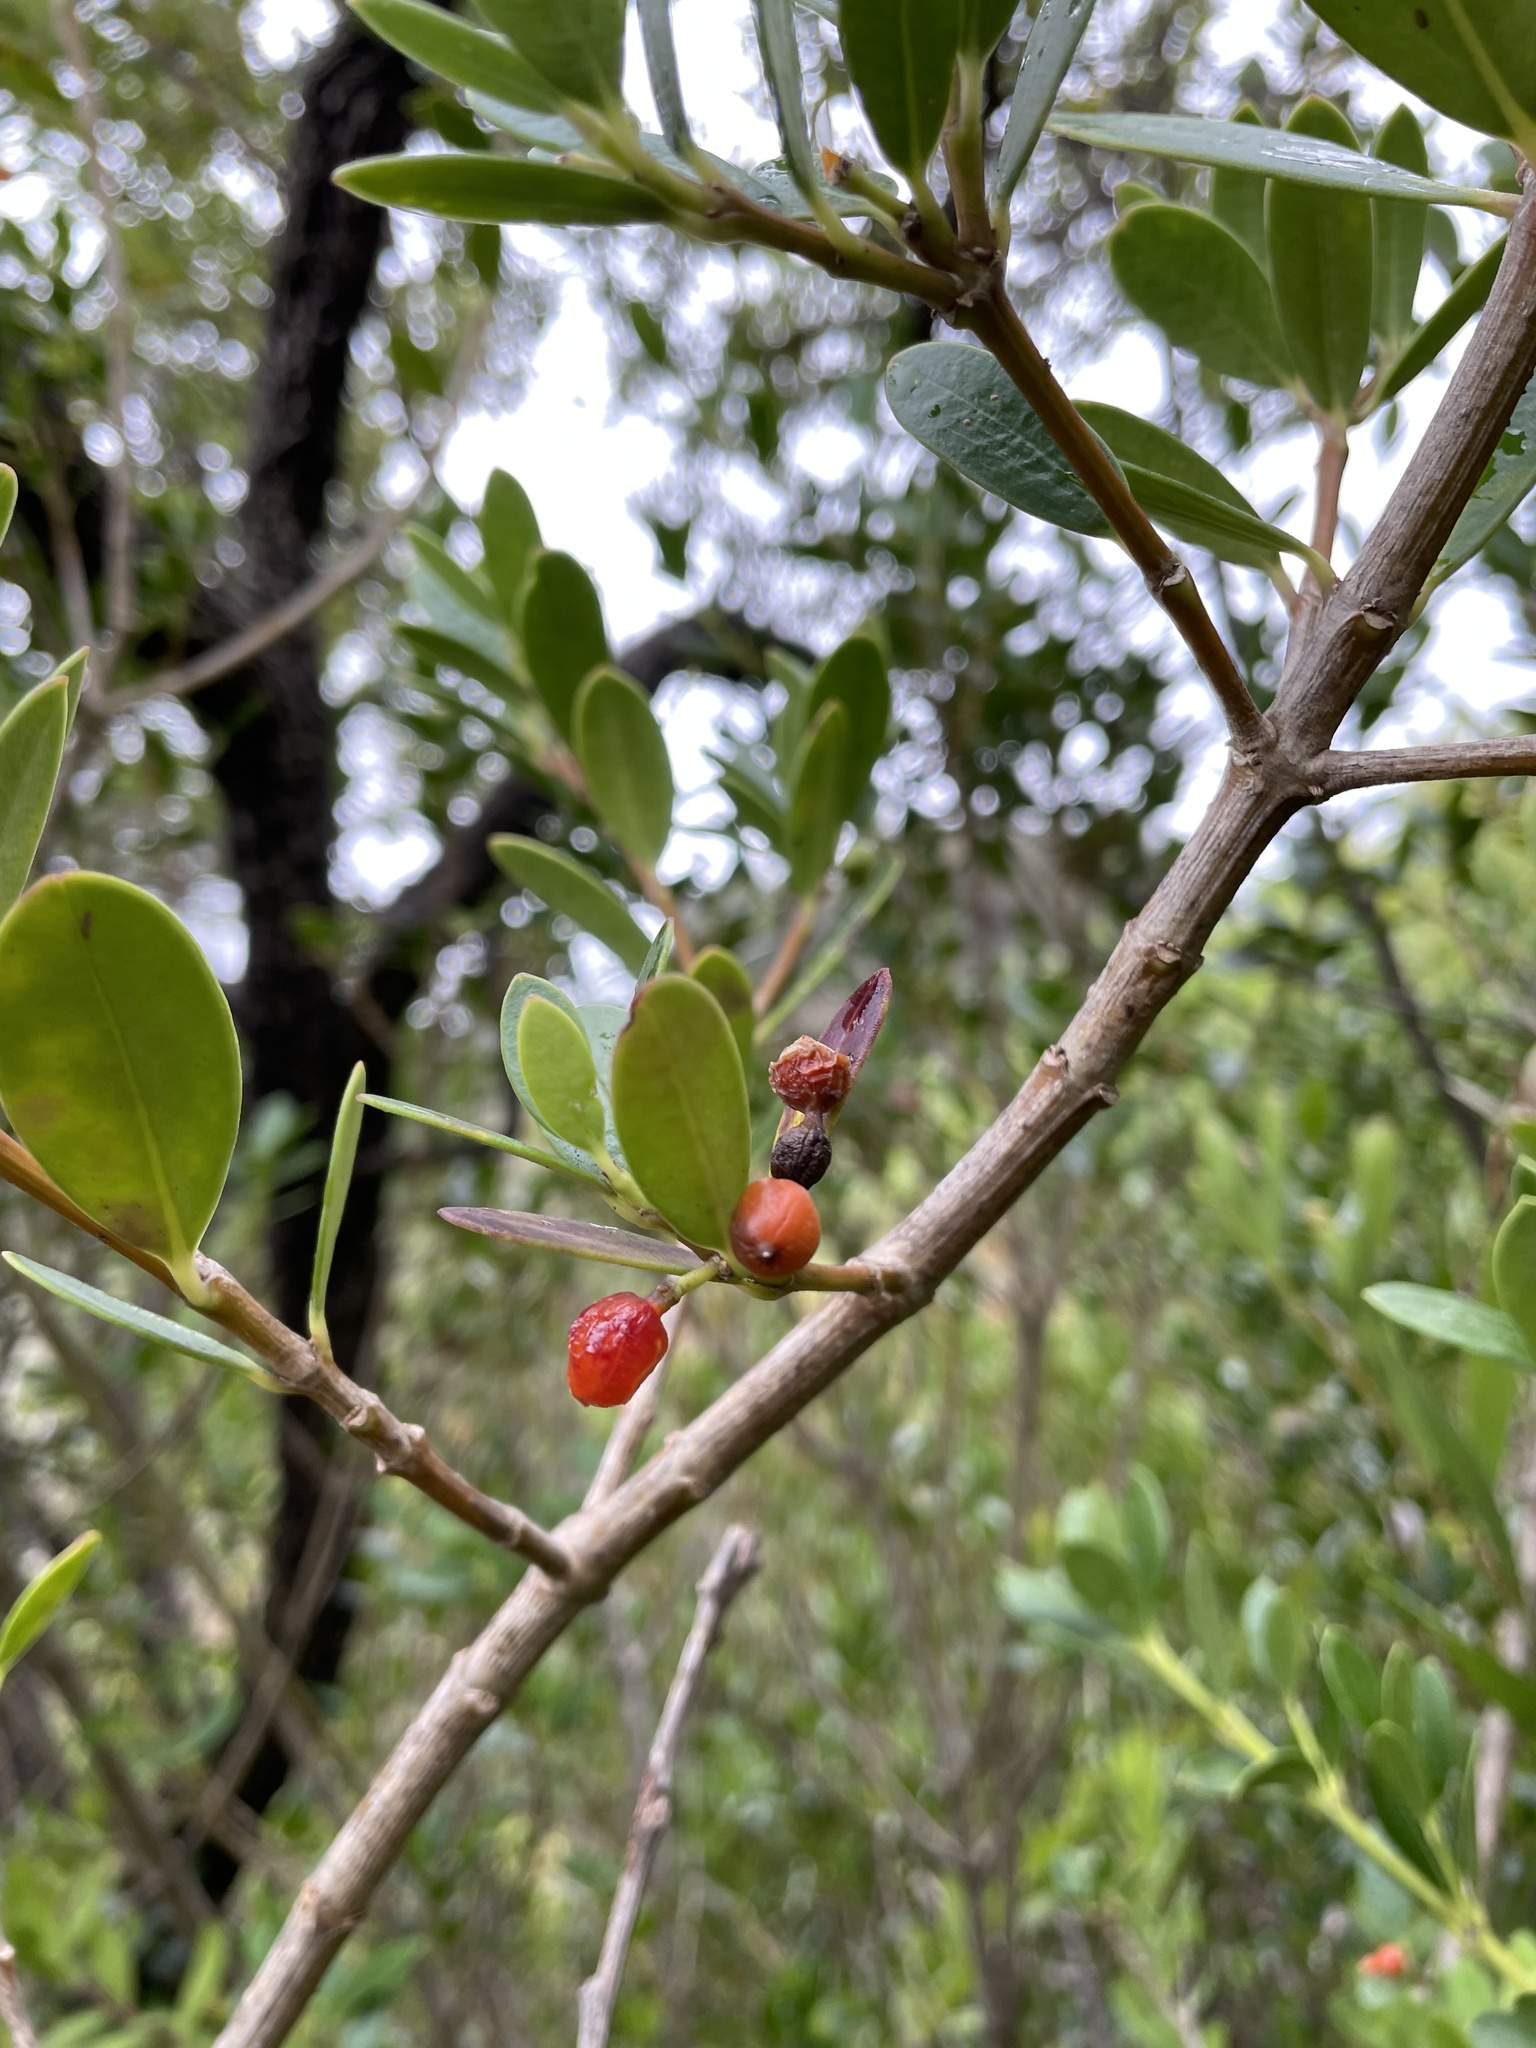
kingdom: Plantae
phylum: Tracheophyta
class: Magnoliopsida
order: Gentianales
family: Apocynaceae
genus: Alyxia
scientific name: Alyxia buxifolia
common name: Dysentery-bush
